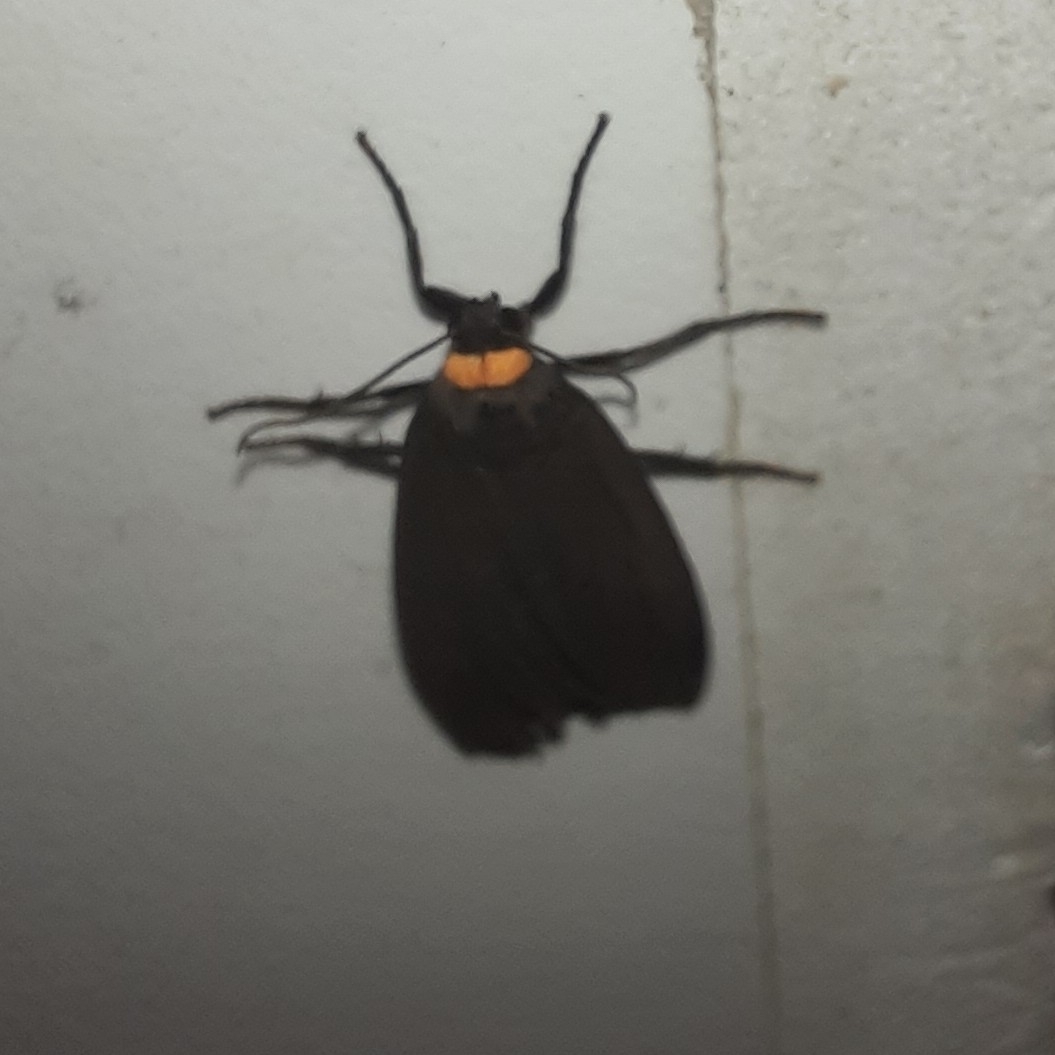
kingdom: Animalia
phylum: Arthropoda
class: Insecta
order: Lepidoptera
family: Erebidae
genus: Atolmis
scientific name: Atolmis rubricollis
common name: Red-necked footman
